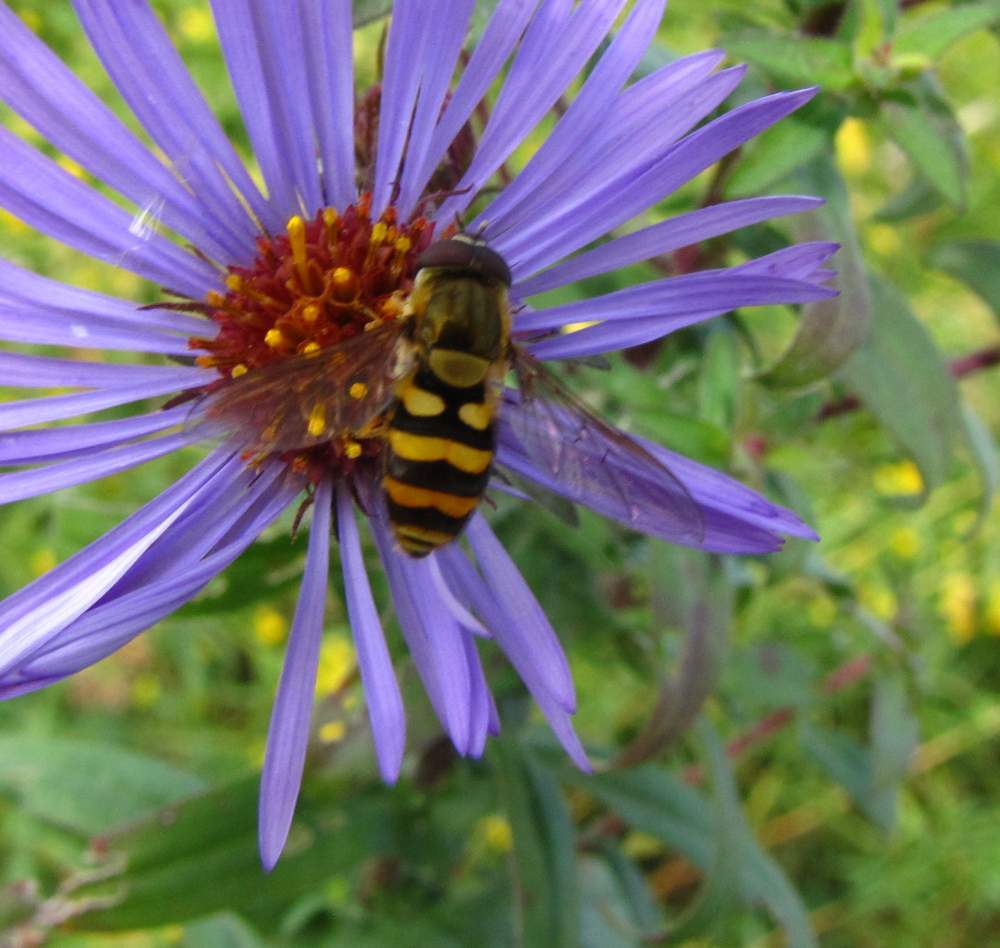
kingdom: Animalia
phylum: Arthropoda
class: Insecta
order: Diptera
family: Syrphidae
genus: Syrphus
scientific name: Syrphus
